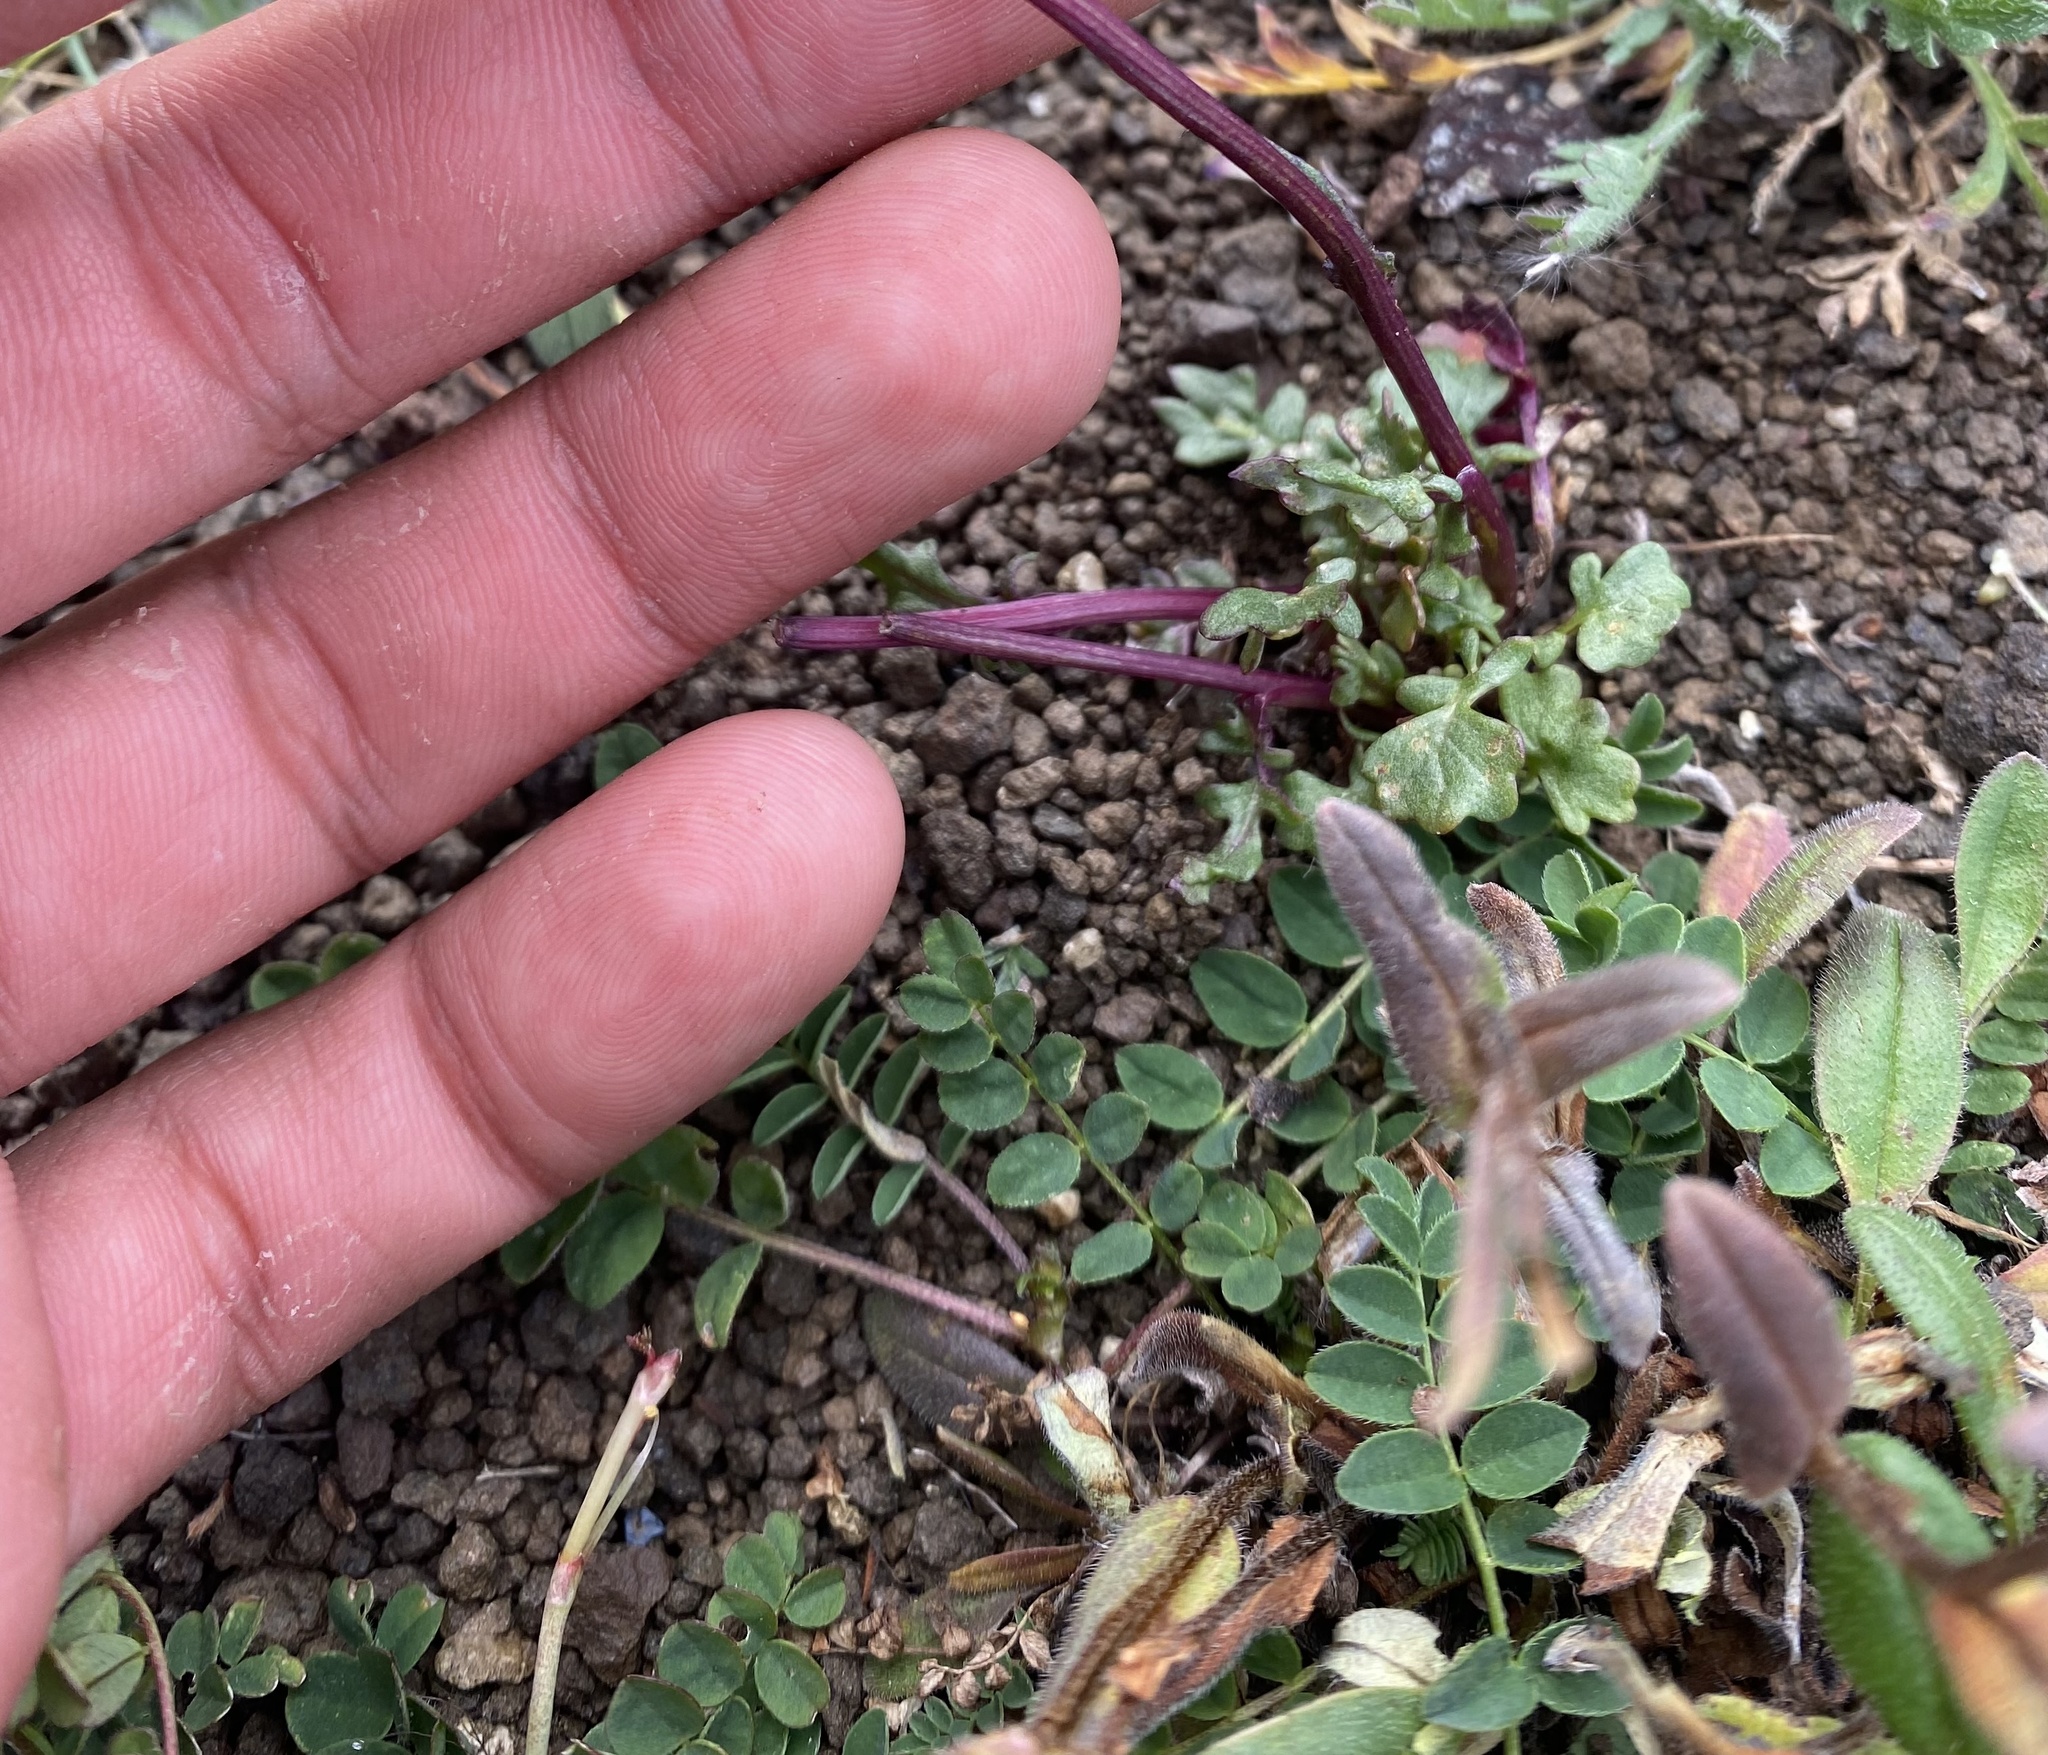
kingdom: Plantae
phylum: Tracheophyta
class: Magnoliopsida
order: Fabales
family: Fabaceae
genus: Astragalus
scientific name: Astragalus alpinus
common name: Alpine milk-vetch
